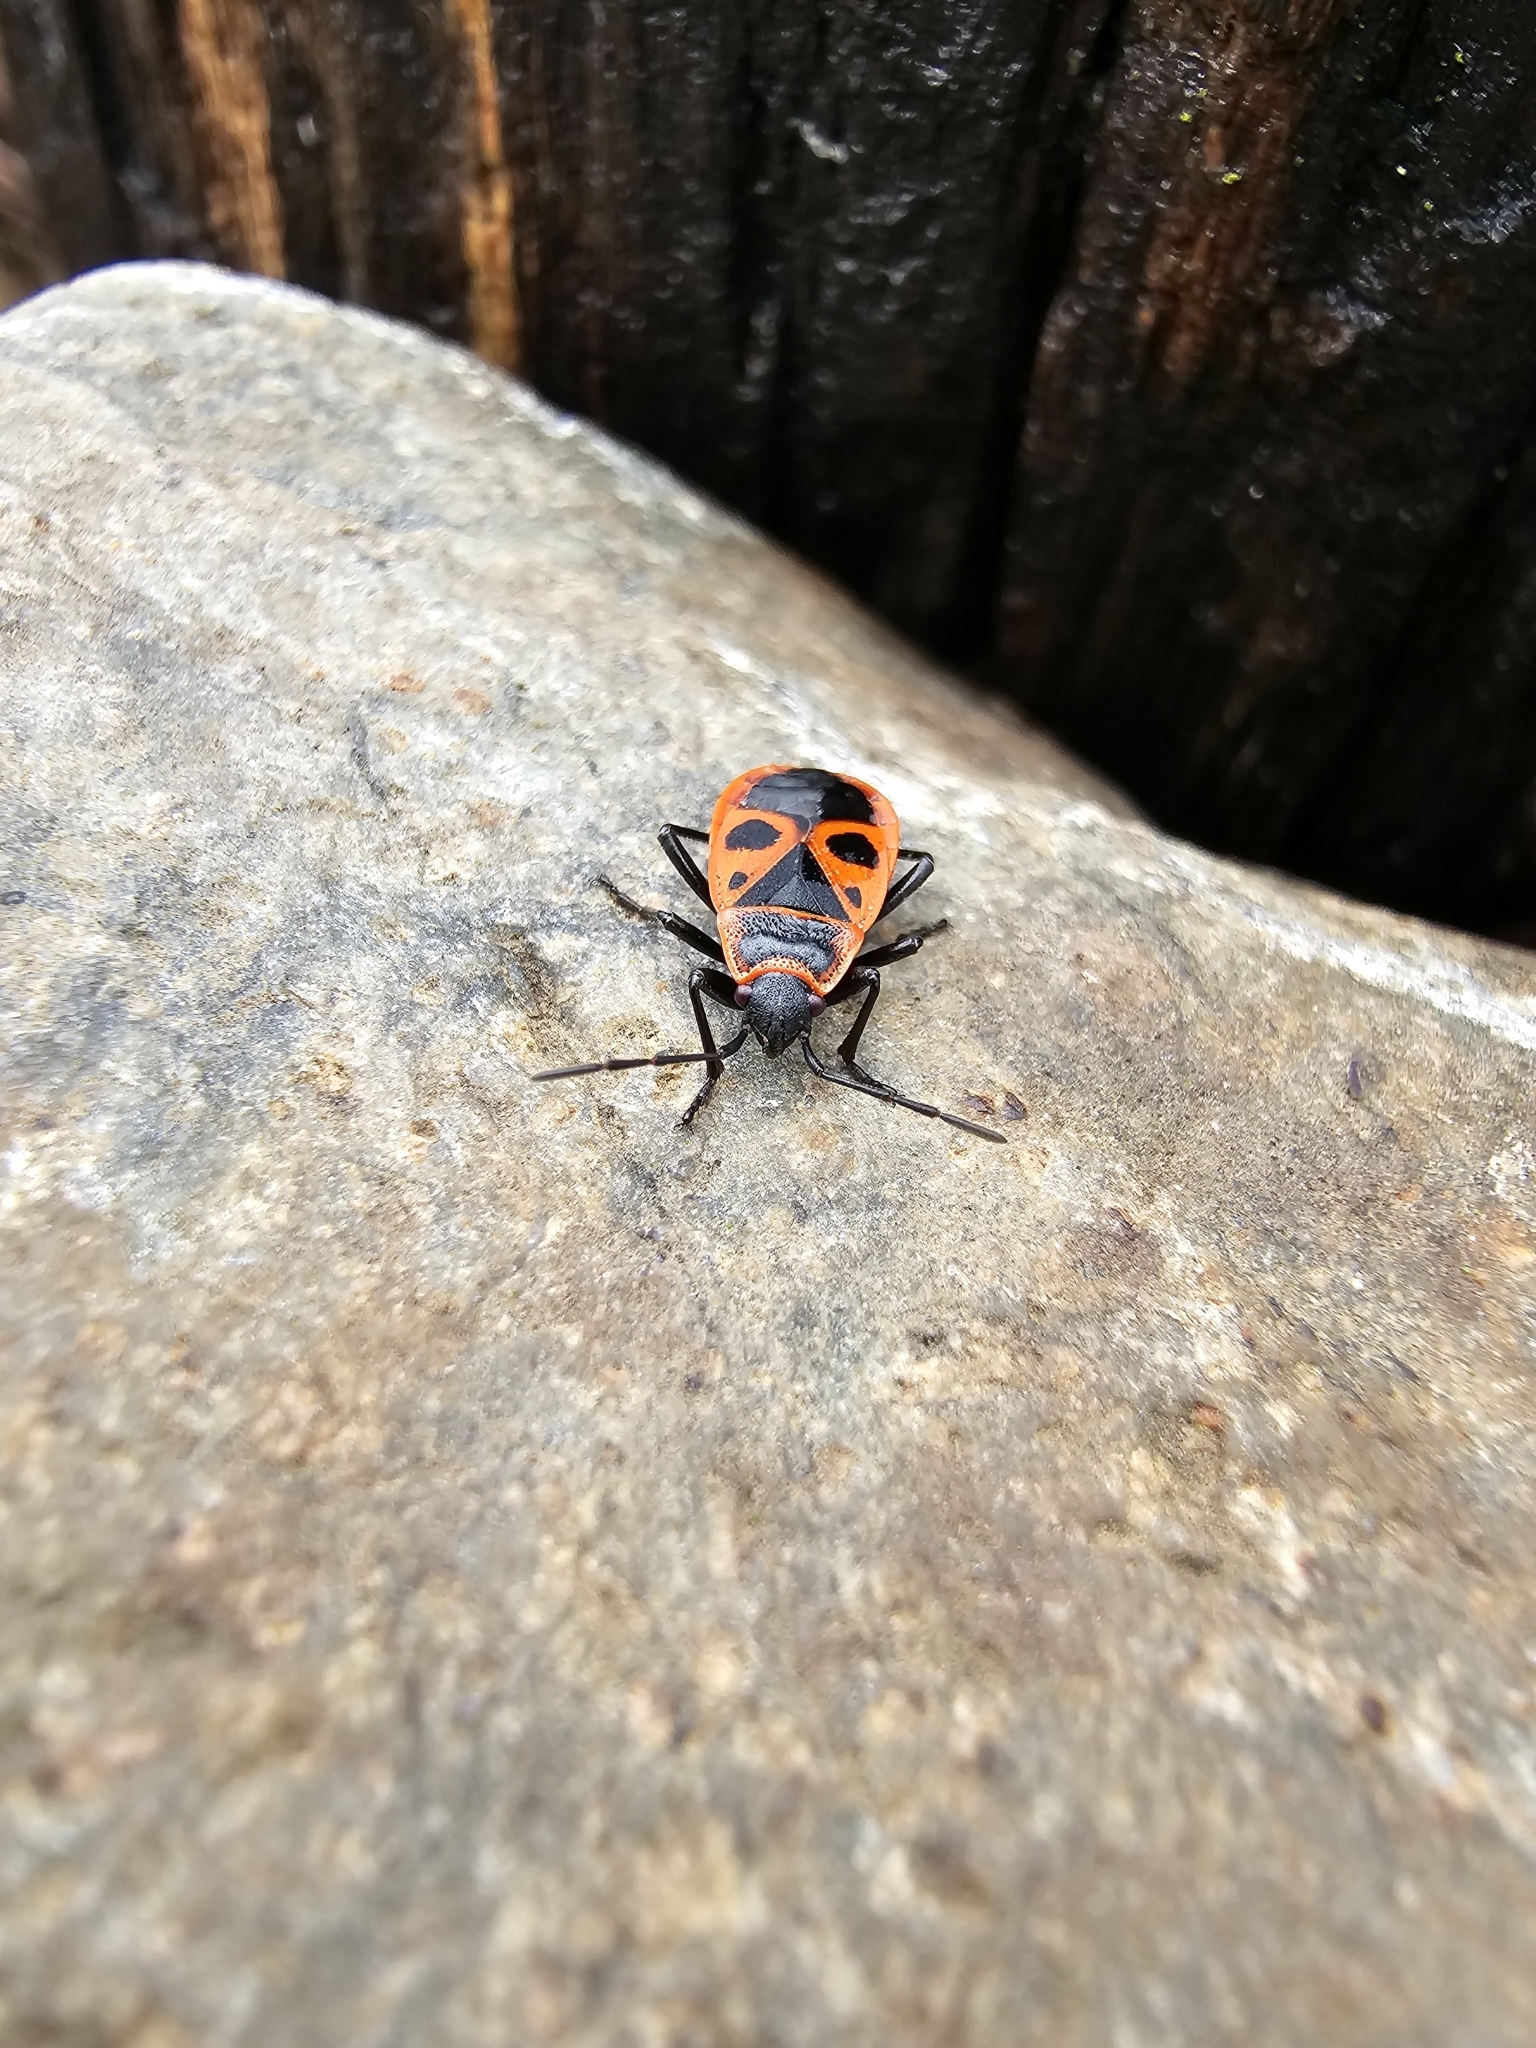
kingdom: Animalia
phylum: Arthropoda
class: Insecta
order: Hemiptera
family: Pyrrhocoridae
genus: Pyrrhocoris
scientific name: Pyrrhocoris apterus
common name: Firebug
